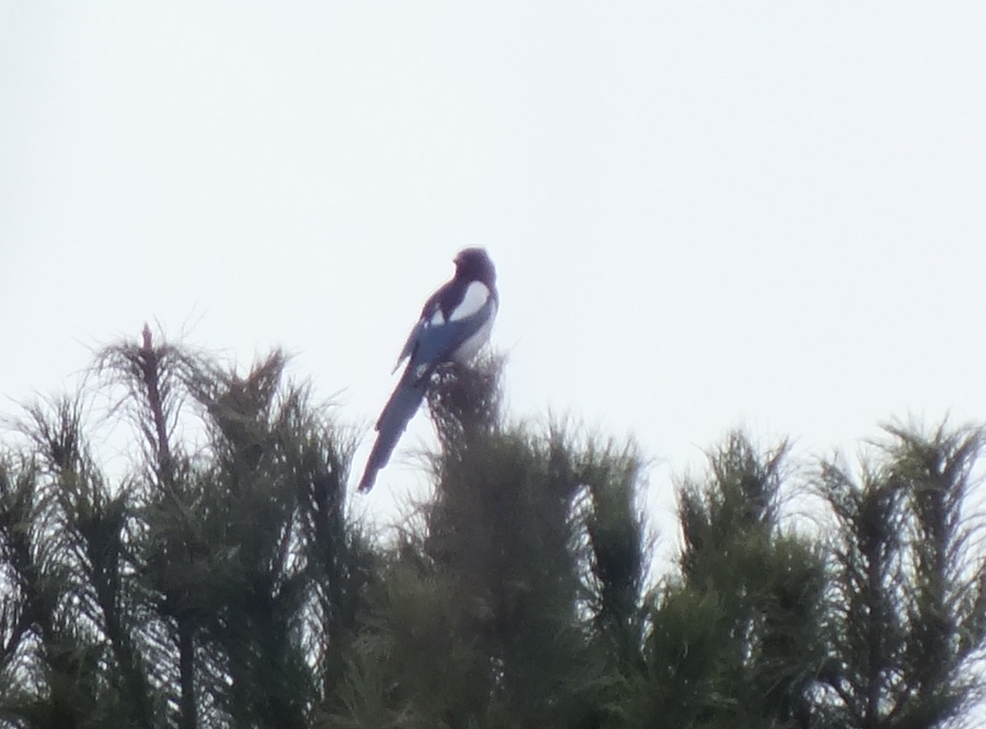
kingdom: Animalia
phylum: Chordata
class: Aves
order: Passeriformes
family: Corvidae
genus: Pica
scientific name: Pica pica
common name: Eurasian magpie
